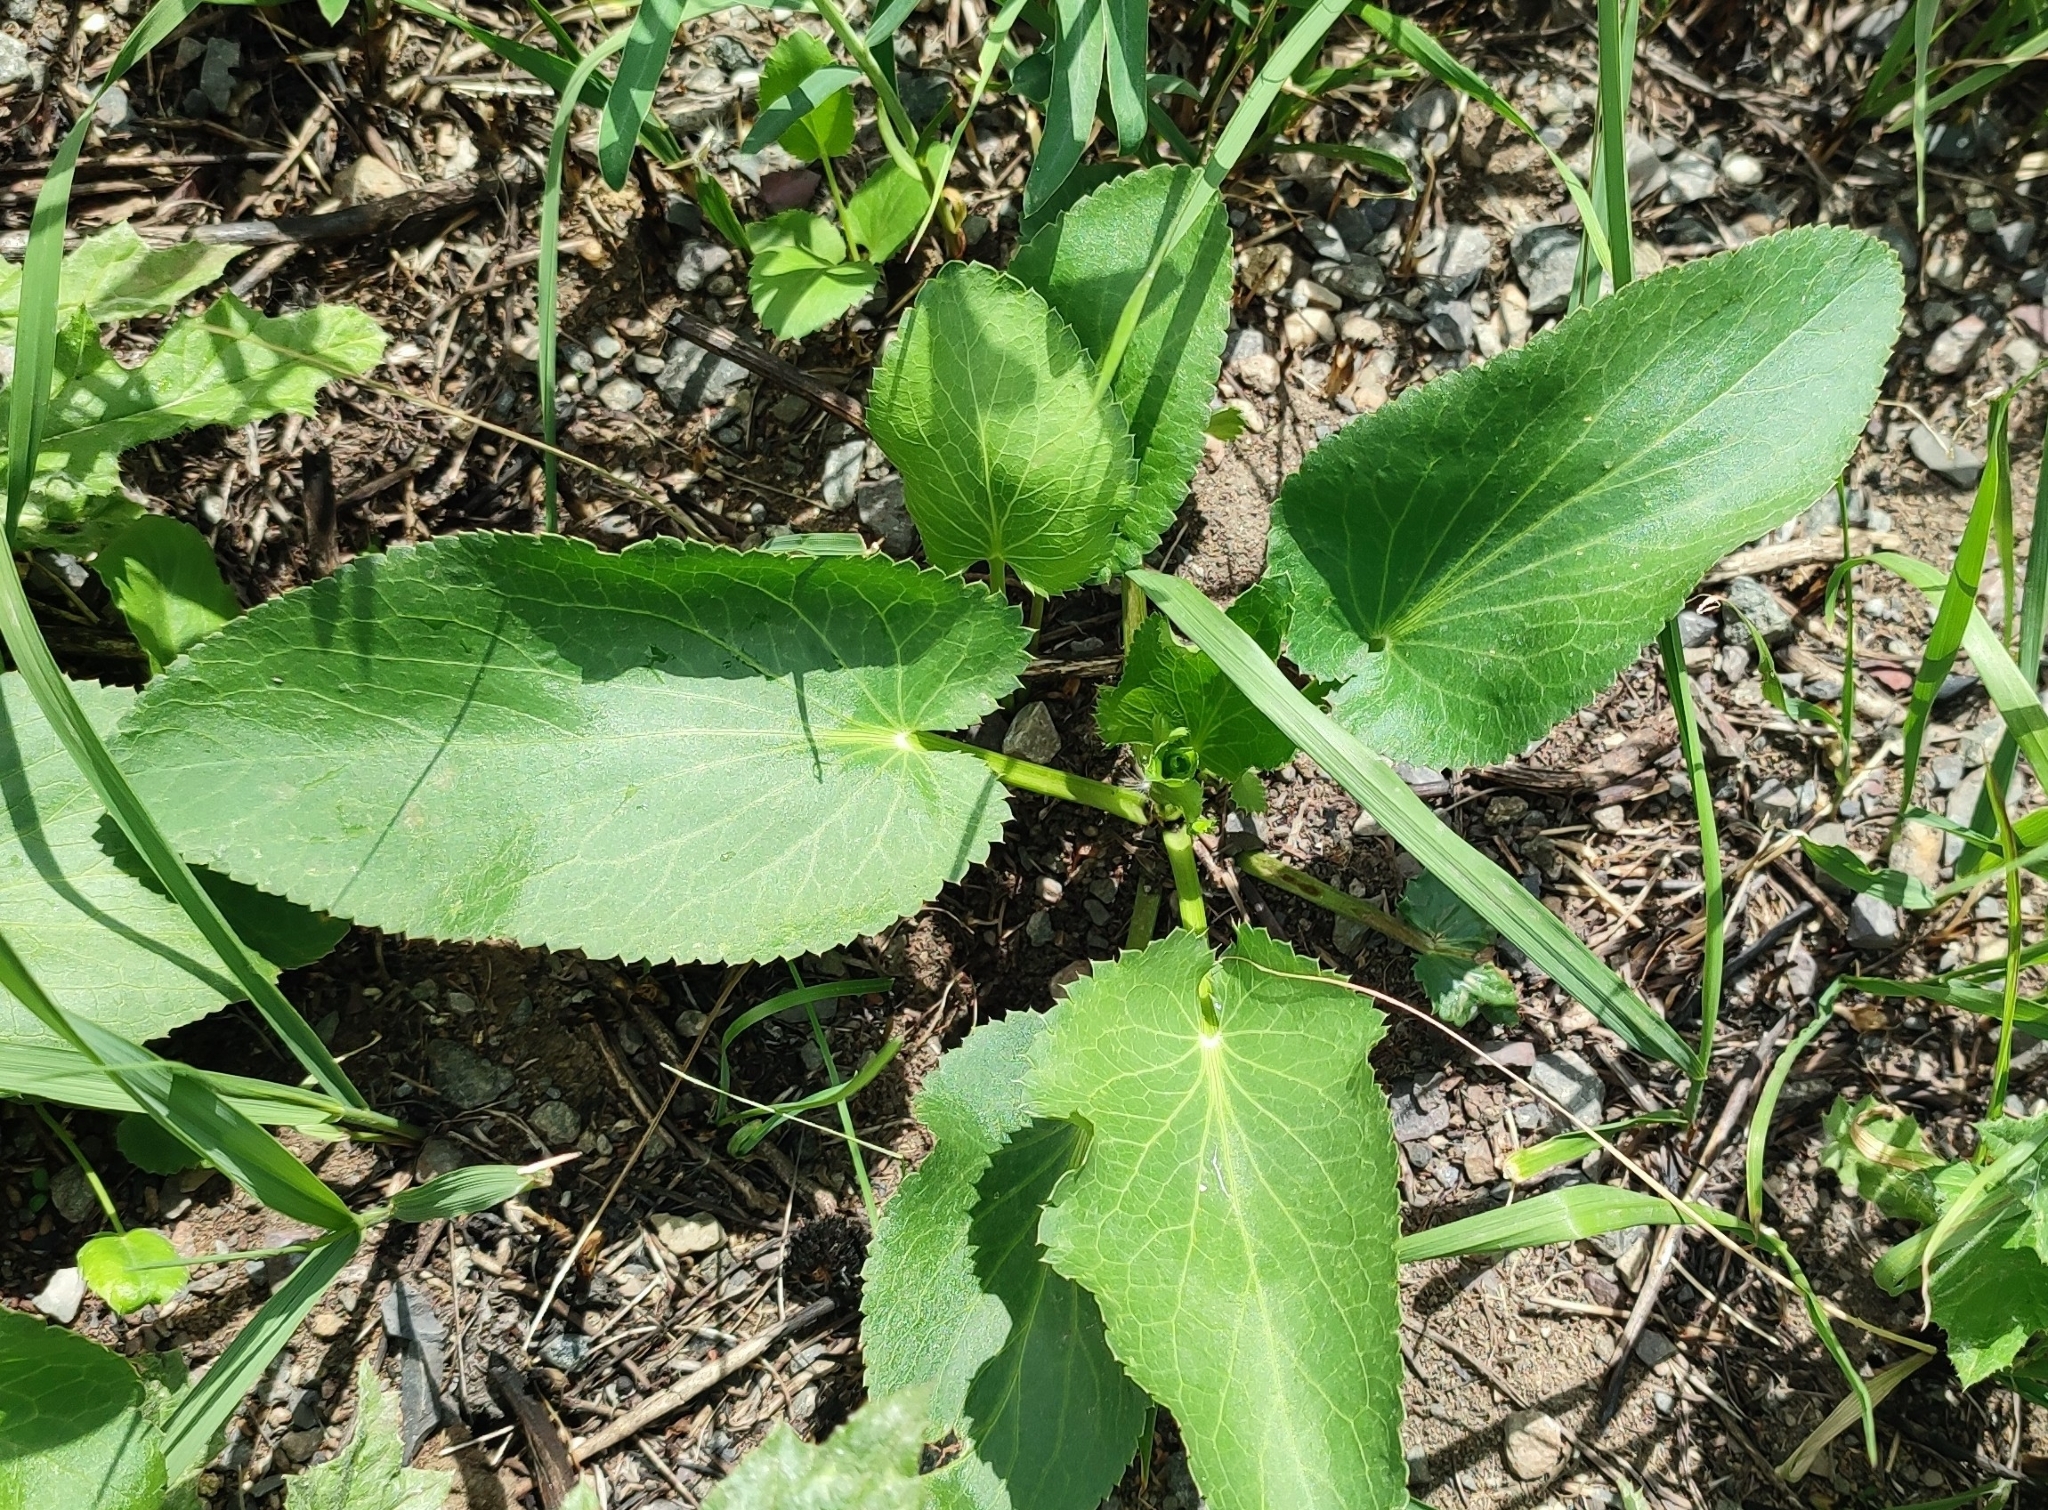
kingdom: Plantae
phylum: Tracheophyta
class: Magnoliopsida
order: Apiales
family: Apiaceae
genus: Eryngium
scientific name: Eryngium planum
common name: Blue eryngo
